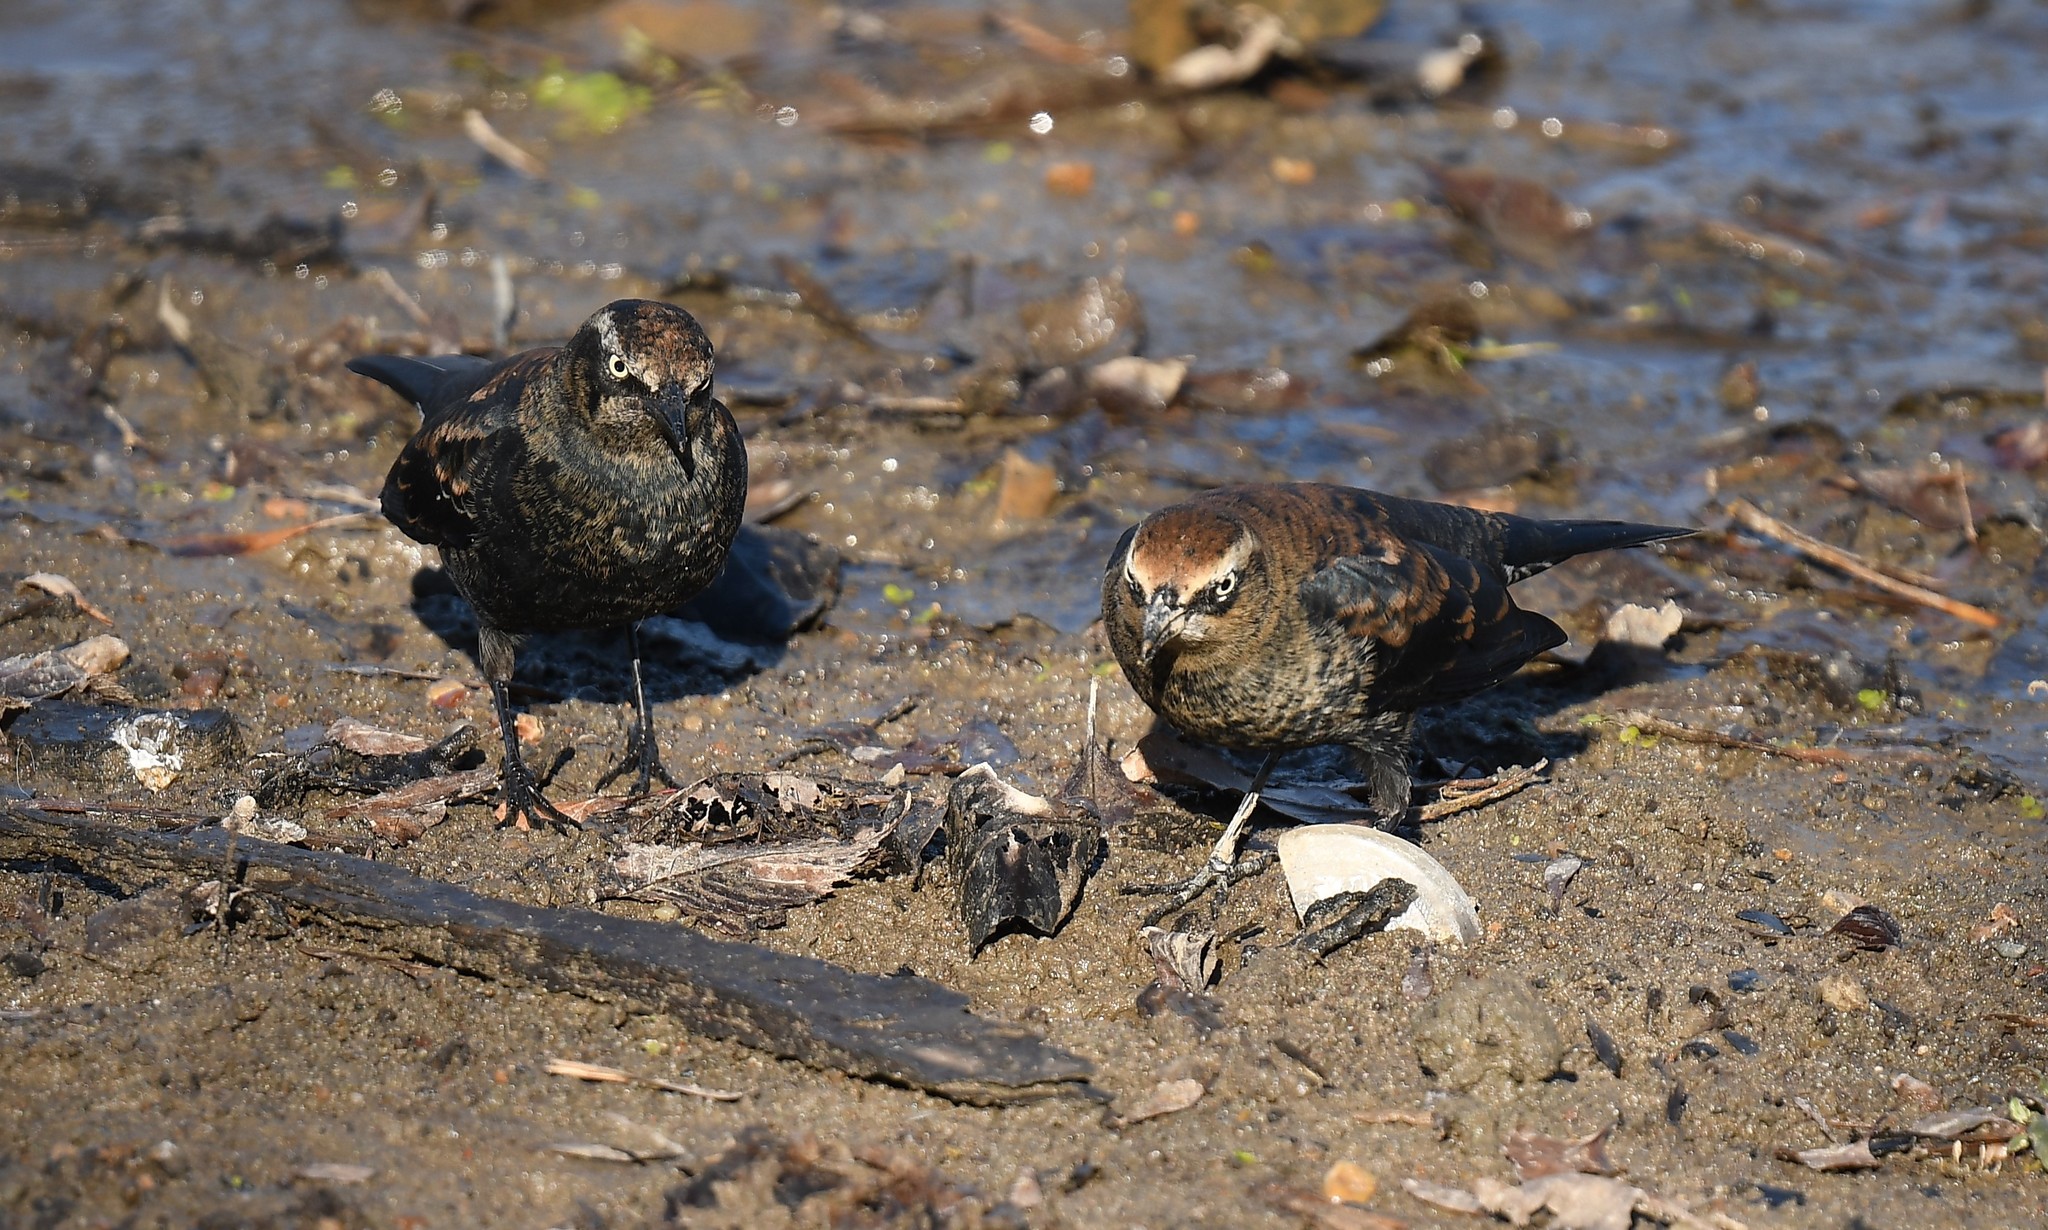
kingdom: Animalia
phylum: Chordata
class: Aves
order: Passeriformes
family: Icteridae
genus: Euphagus
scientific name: Euphagus carolinus
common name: Rusty blackbird
